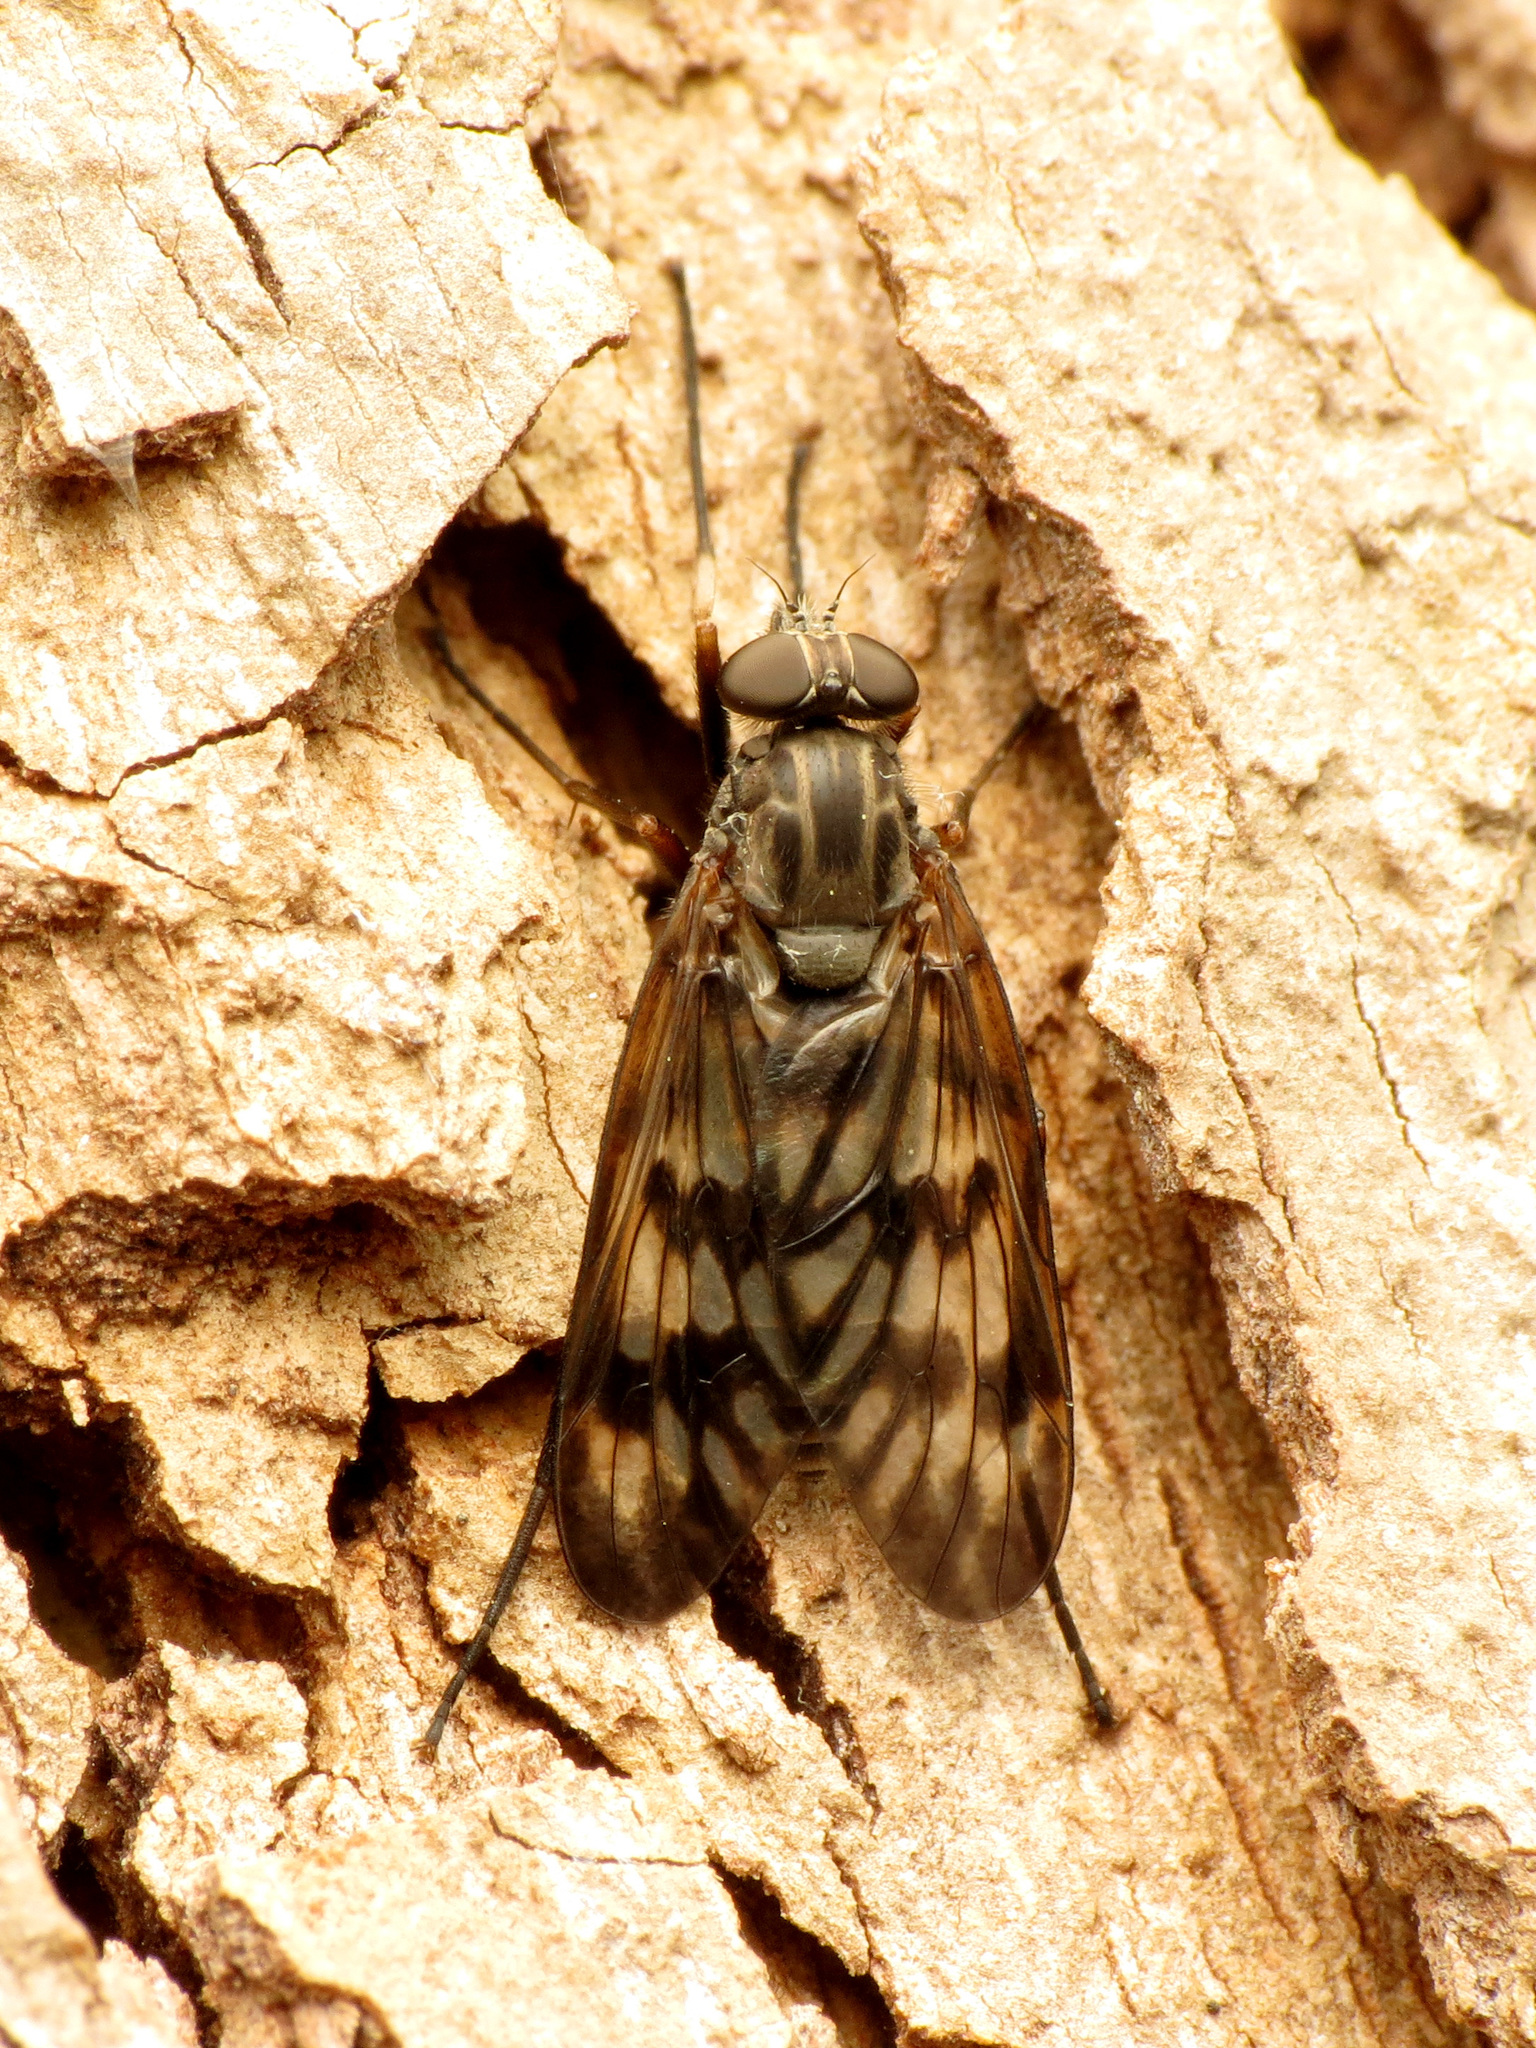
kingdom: Animalia
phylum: Arthropoda
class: Insecta
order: Diptera
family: Rhagionidae
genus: Rhagio
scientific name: Rhagio mystaceus
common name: Common snipe fly
